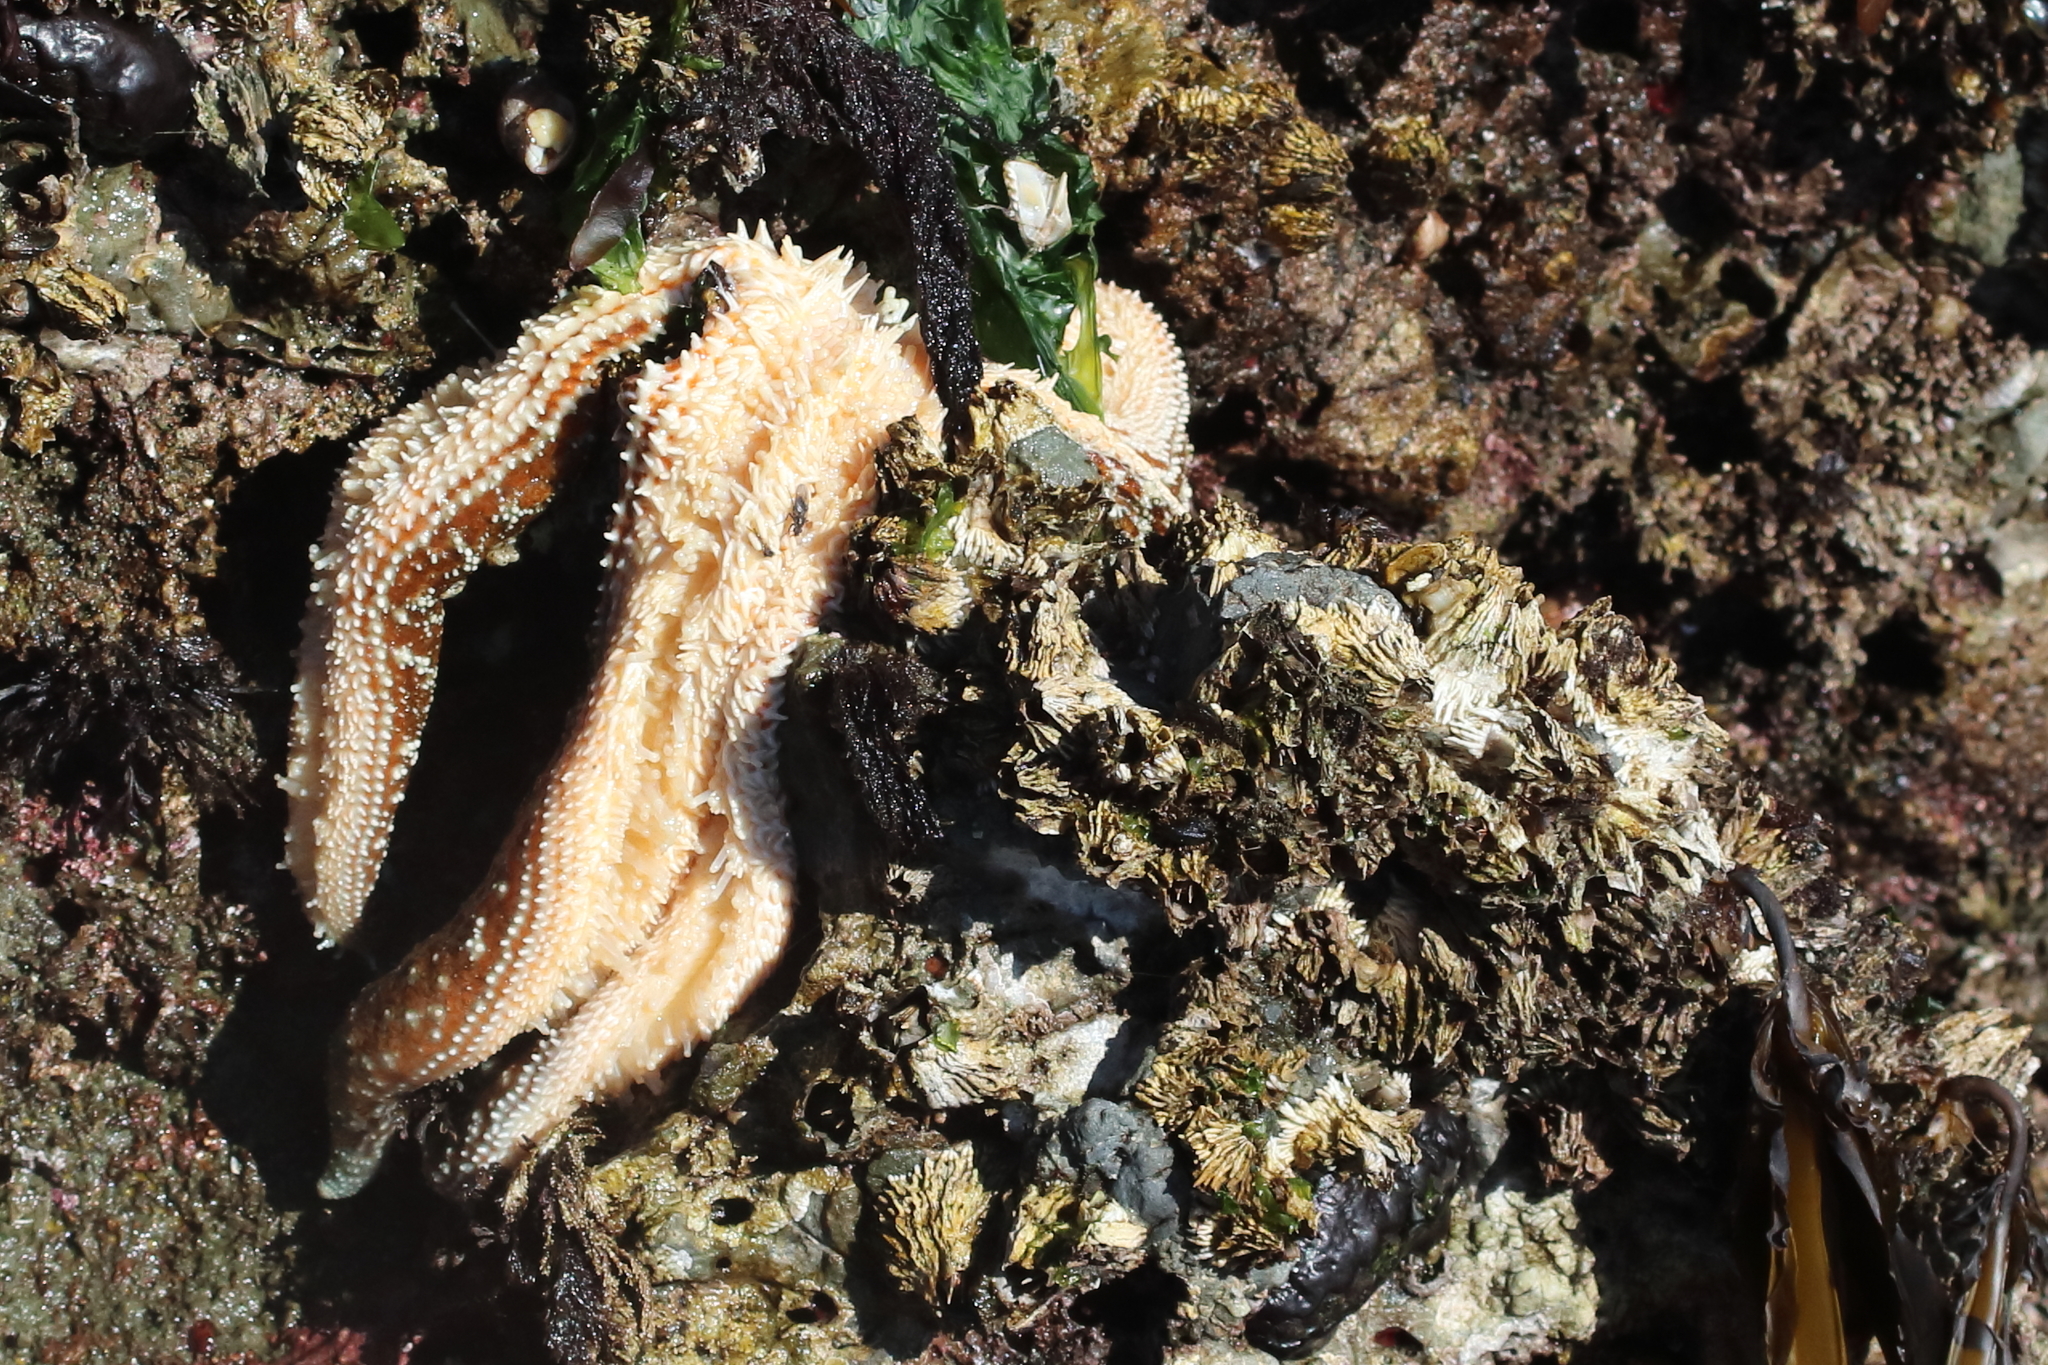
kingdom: Animalia
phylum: Echinodermata
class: Asteroidea
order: Forcipulatida
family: Asteriidae
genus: Evasterias
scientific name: Evasterias troschelii
